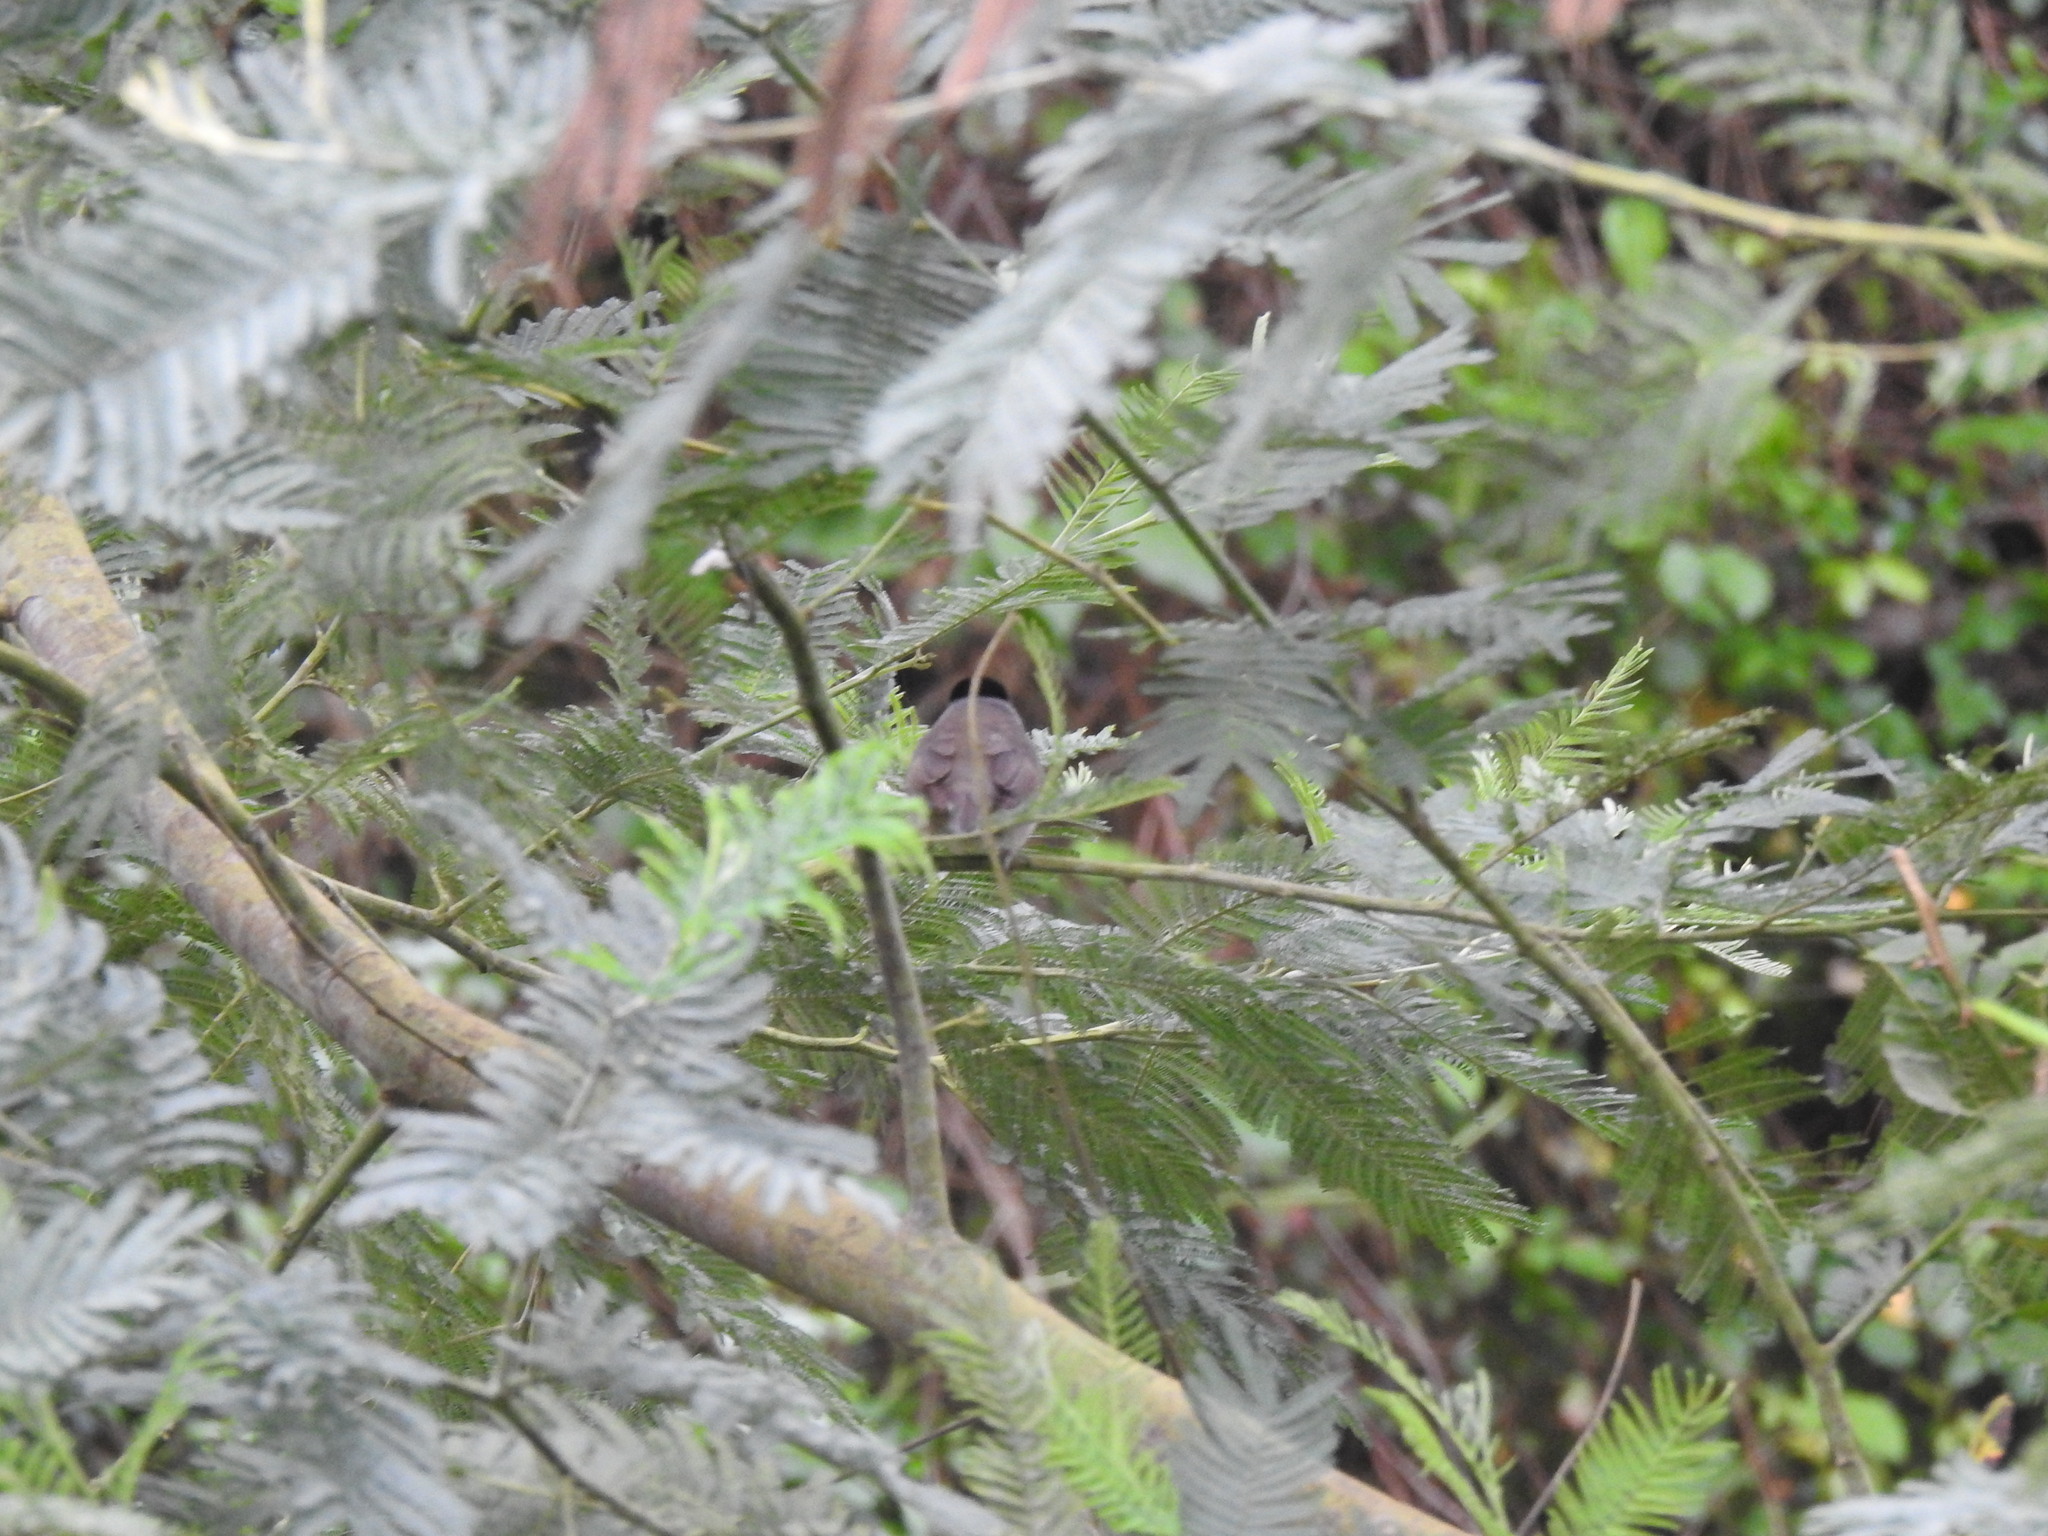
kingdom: Animalia
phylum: Chordata
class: Aves
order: Passeriformes
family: Sylviidae
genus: Sylvia
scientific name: Sylvia atricapilla
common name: Eurasian blackcap
